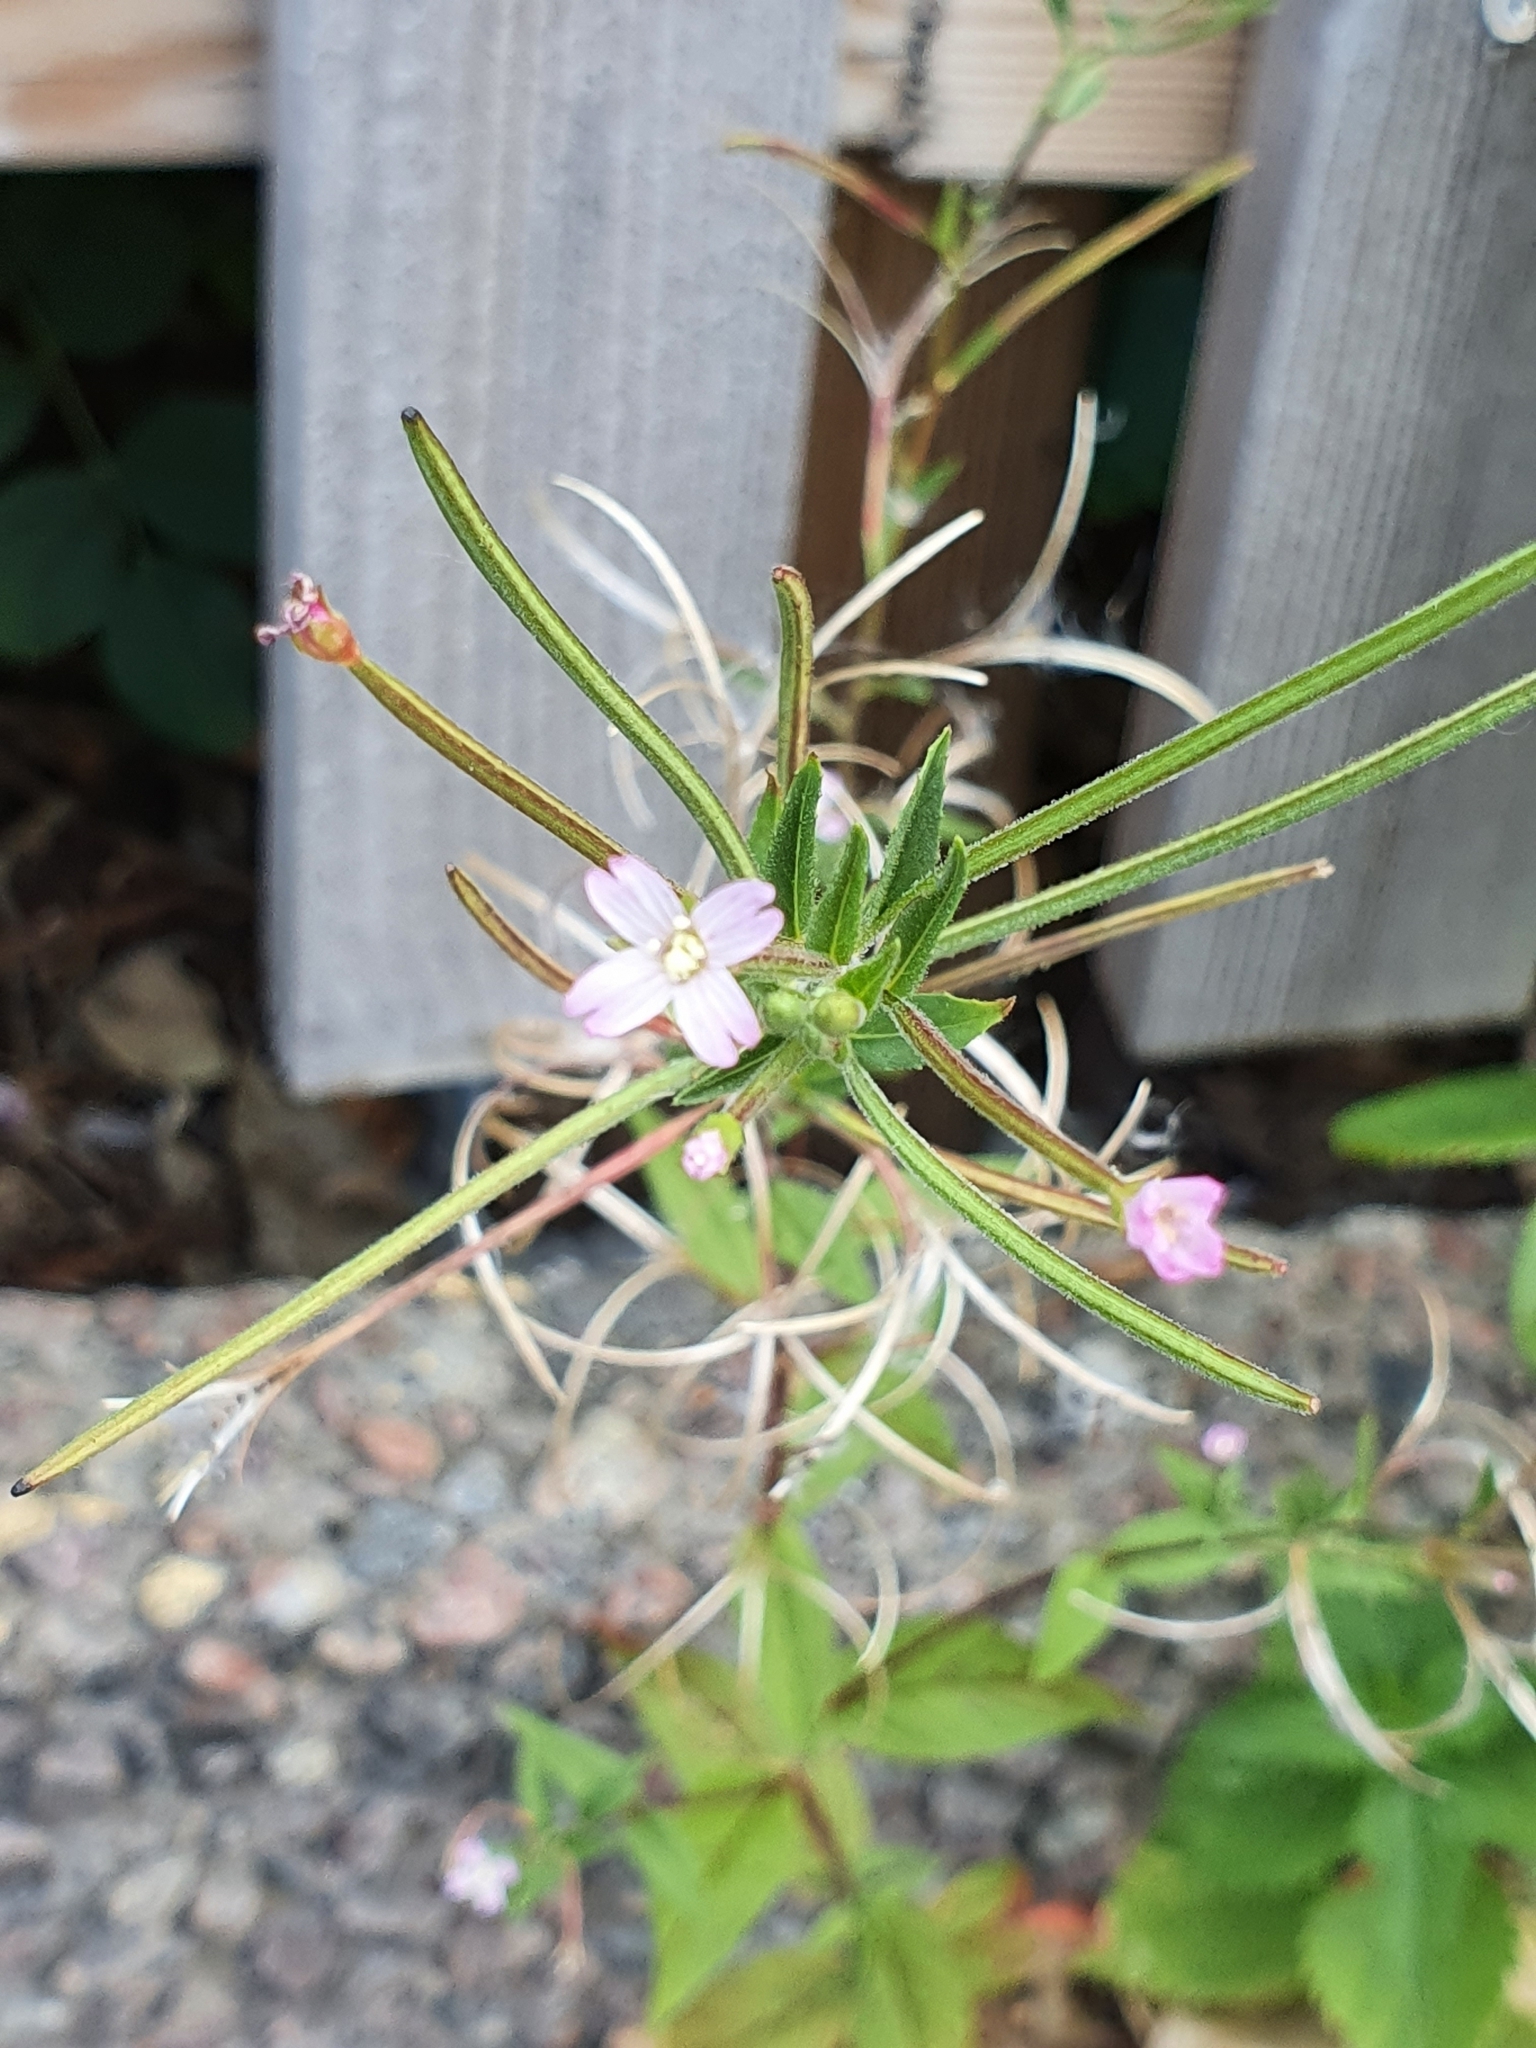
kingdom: Plantae
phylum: Tracheophyta
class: Magnoliopsida
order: Myrtales
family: Onagraceae
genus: Epilobium
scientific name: Epilobium ciliatum
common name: American willowherb
